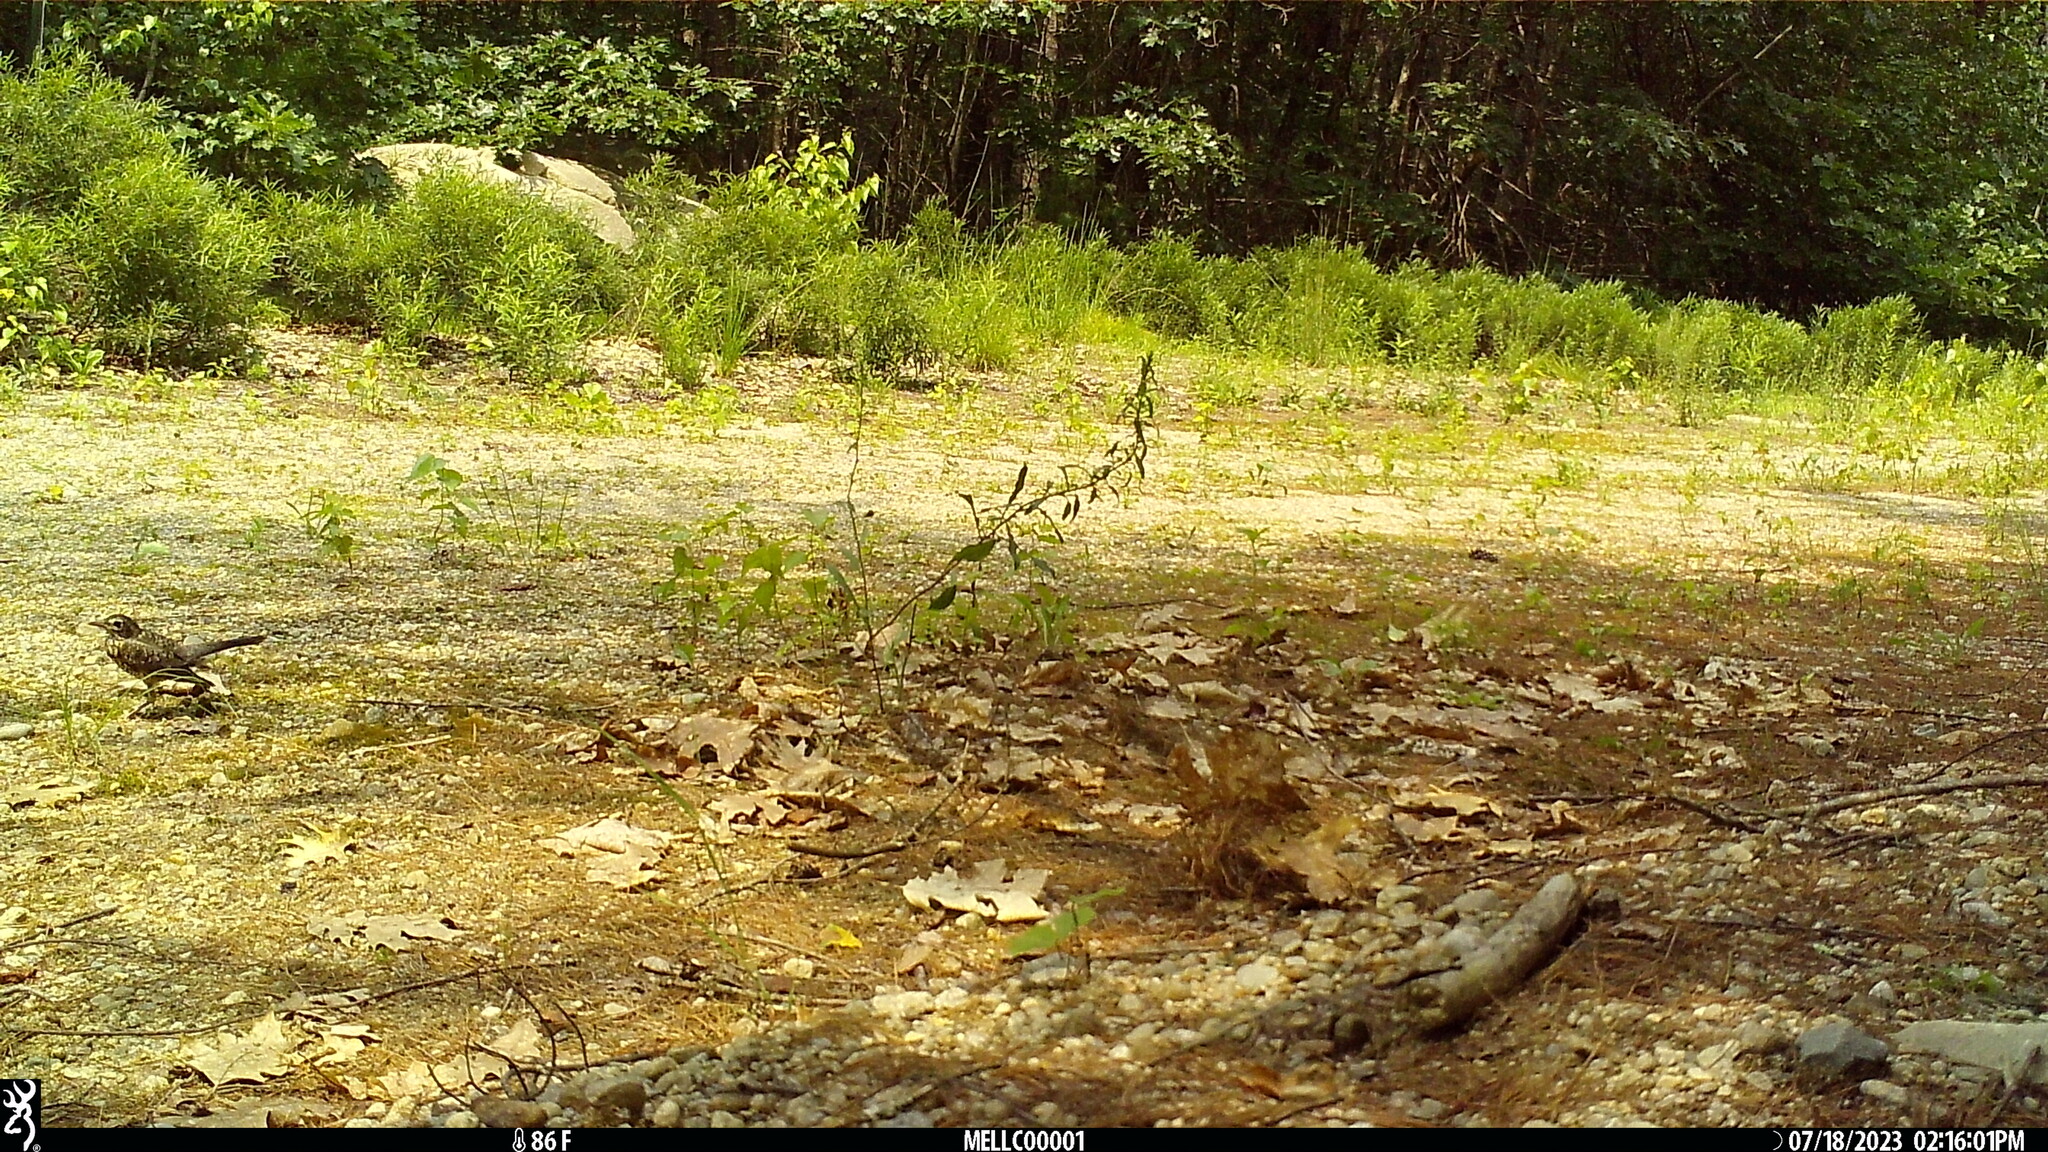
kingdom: Animalia
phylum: Chordata
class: Aves
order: Passeriformes
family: Turdidae
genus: Turdus
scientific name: Turdus migratorius
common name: American robin
